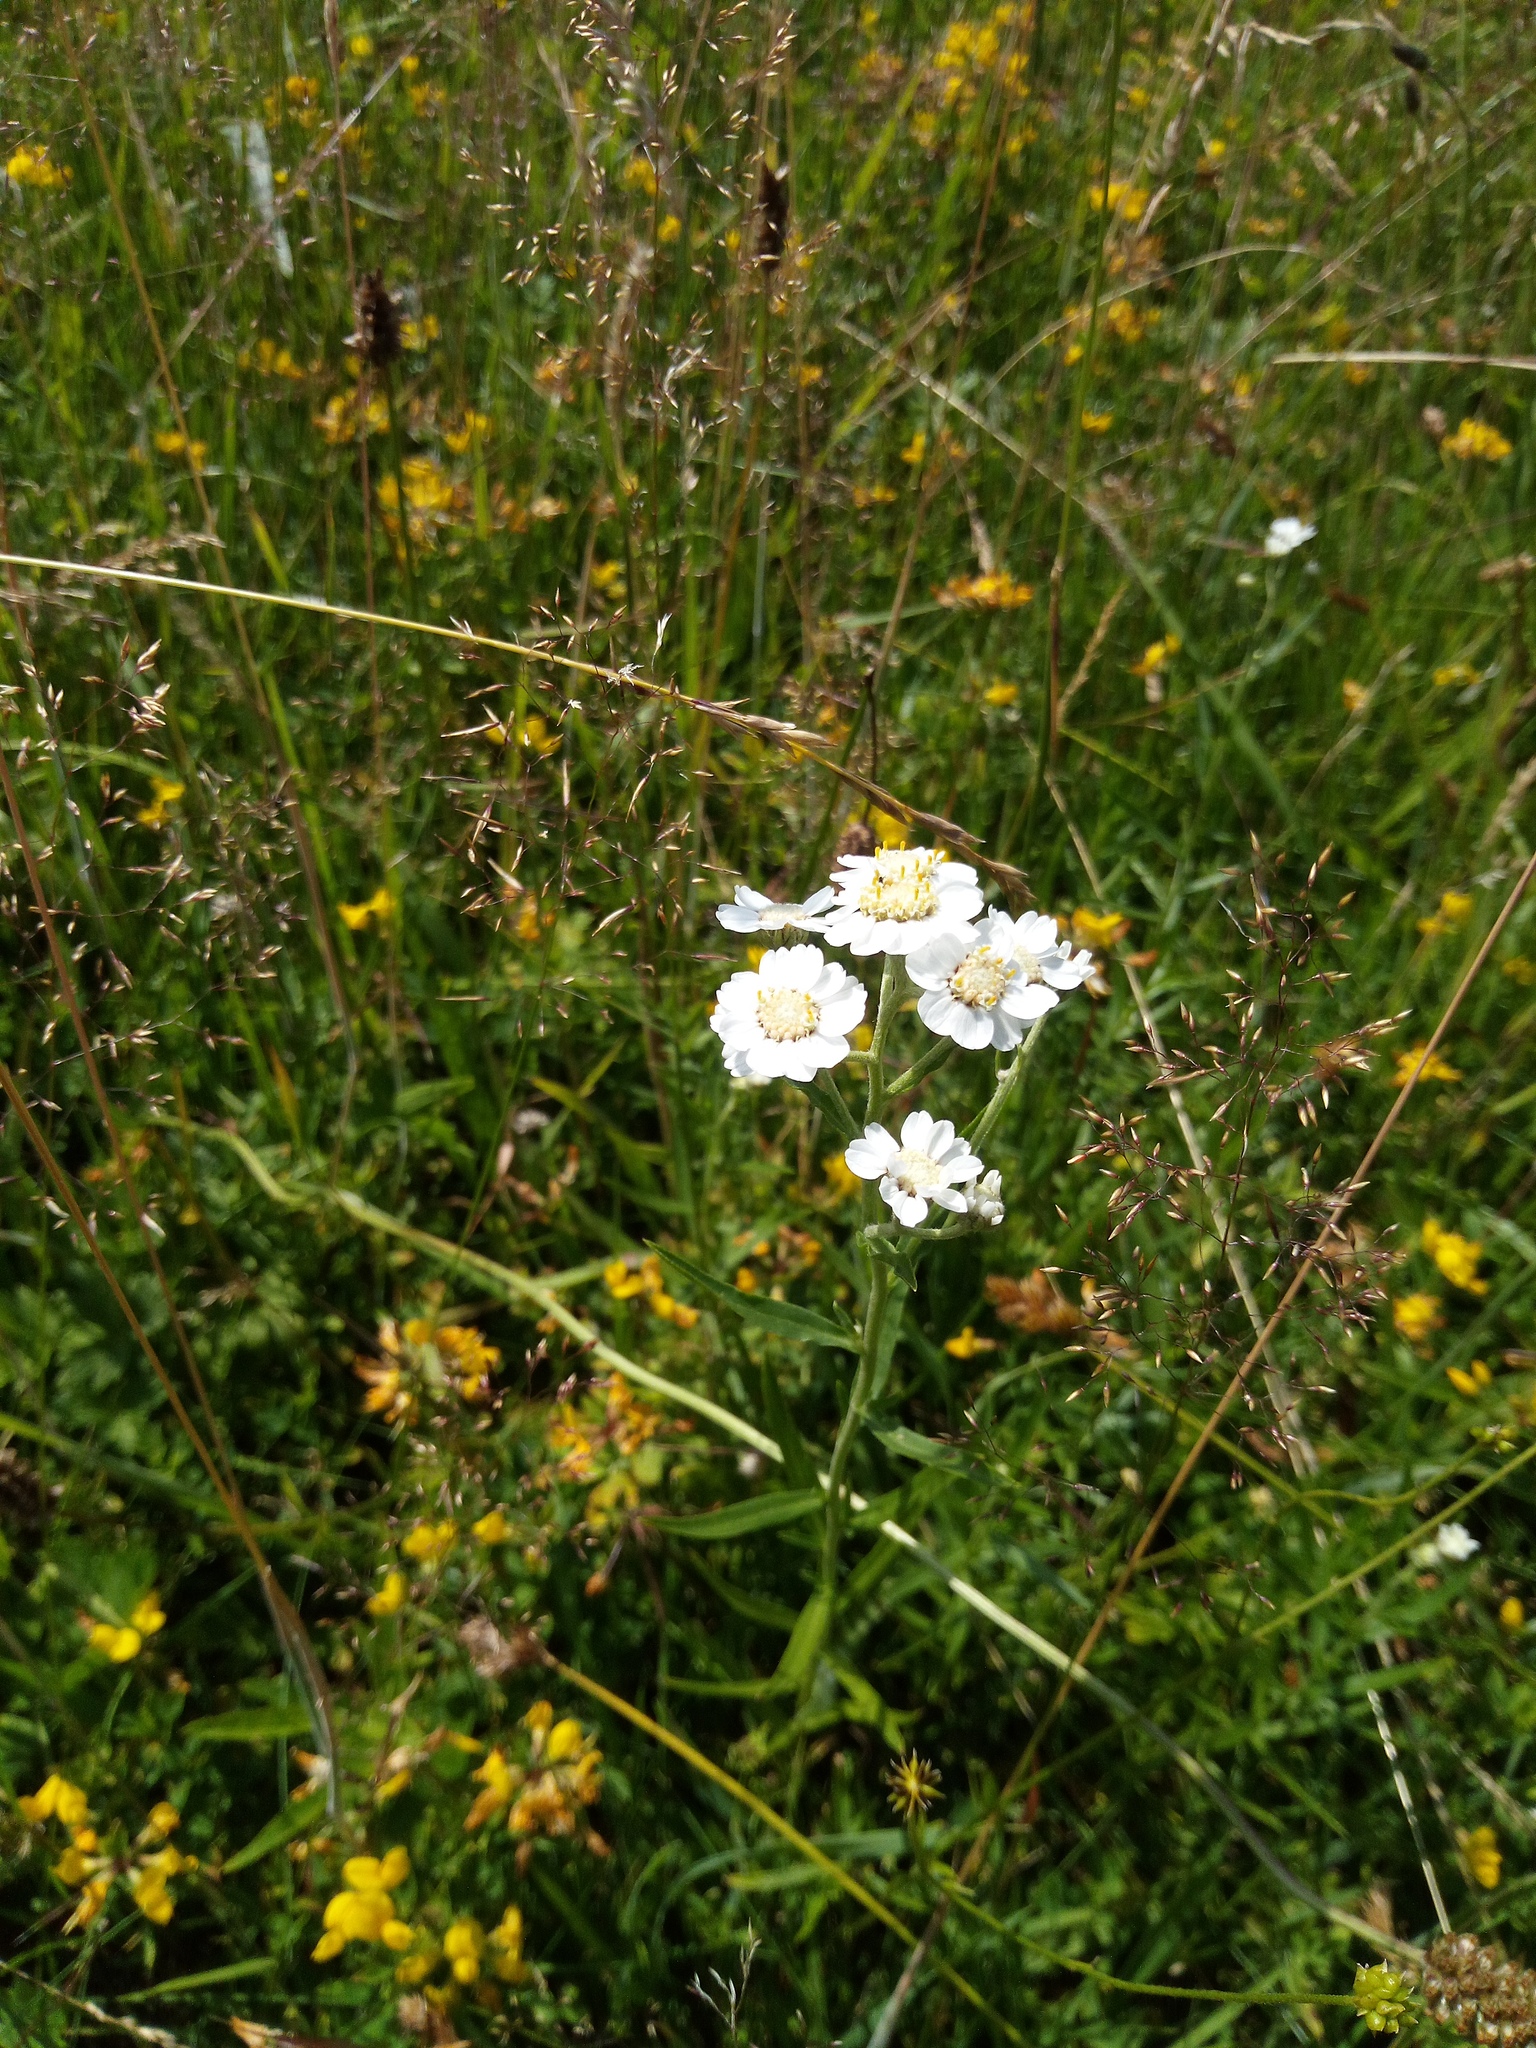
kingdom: Plantae
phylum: Tracheophyta
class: Magnoliopsida
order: Asterales
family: Asteraceae
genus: Achillea
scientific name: Achillea ptarmica
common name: Sneezeweed
